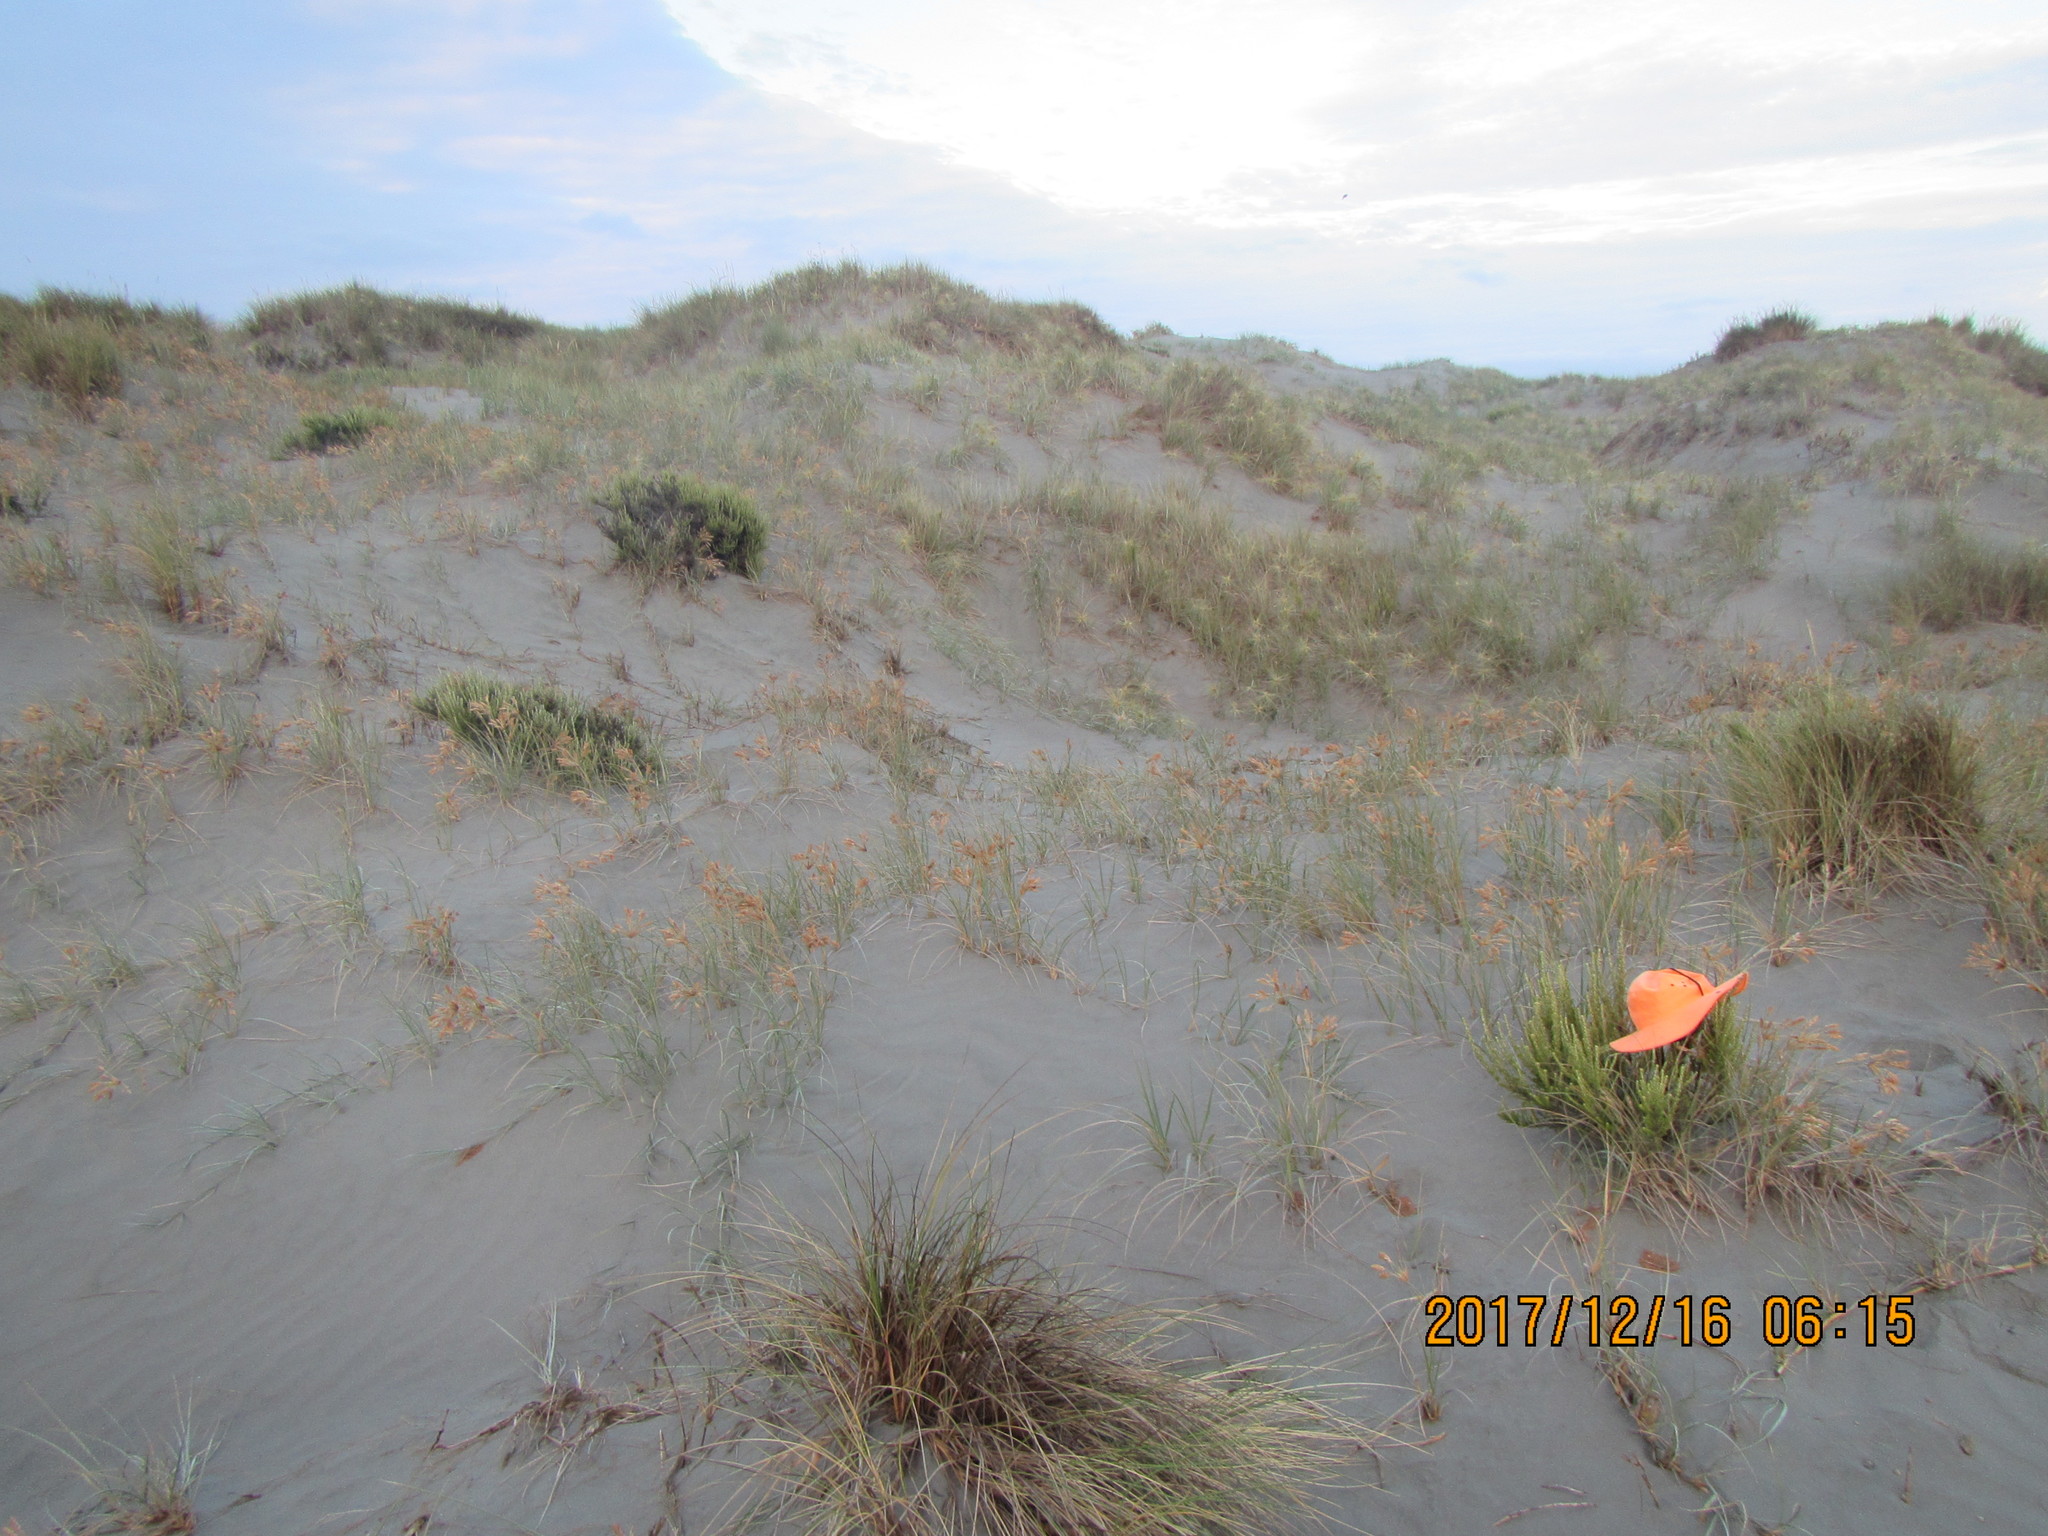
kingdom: Plantae
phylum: Tracheophyta
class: Magnoliopsida
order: Asterales
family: Asteraceae
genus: Ozothamnus
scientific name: Ozothamnus leptophyllus
